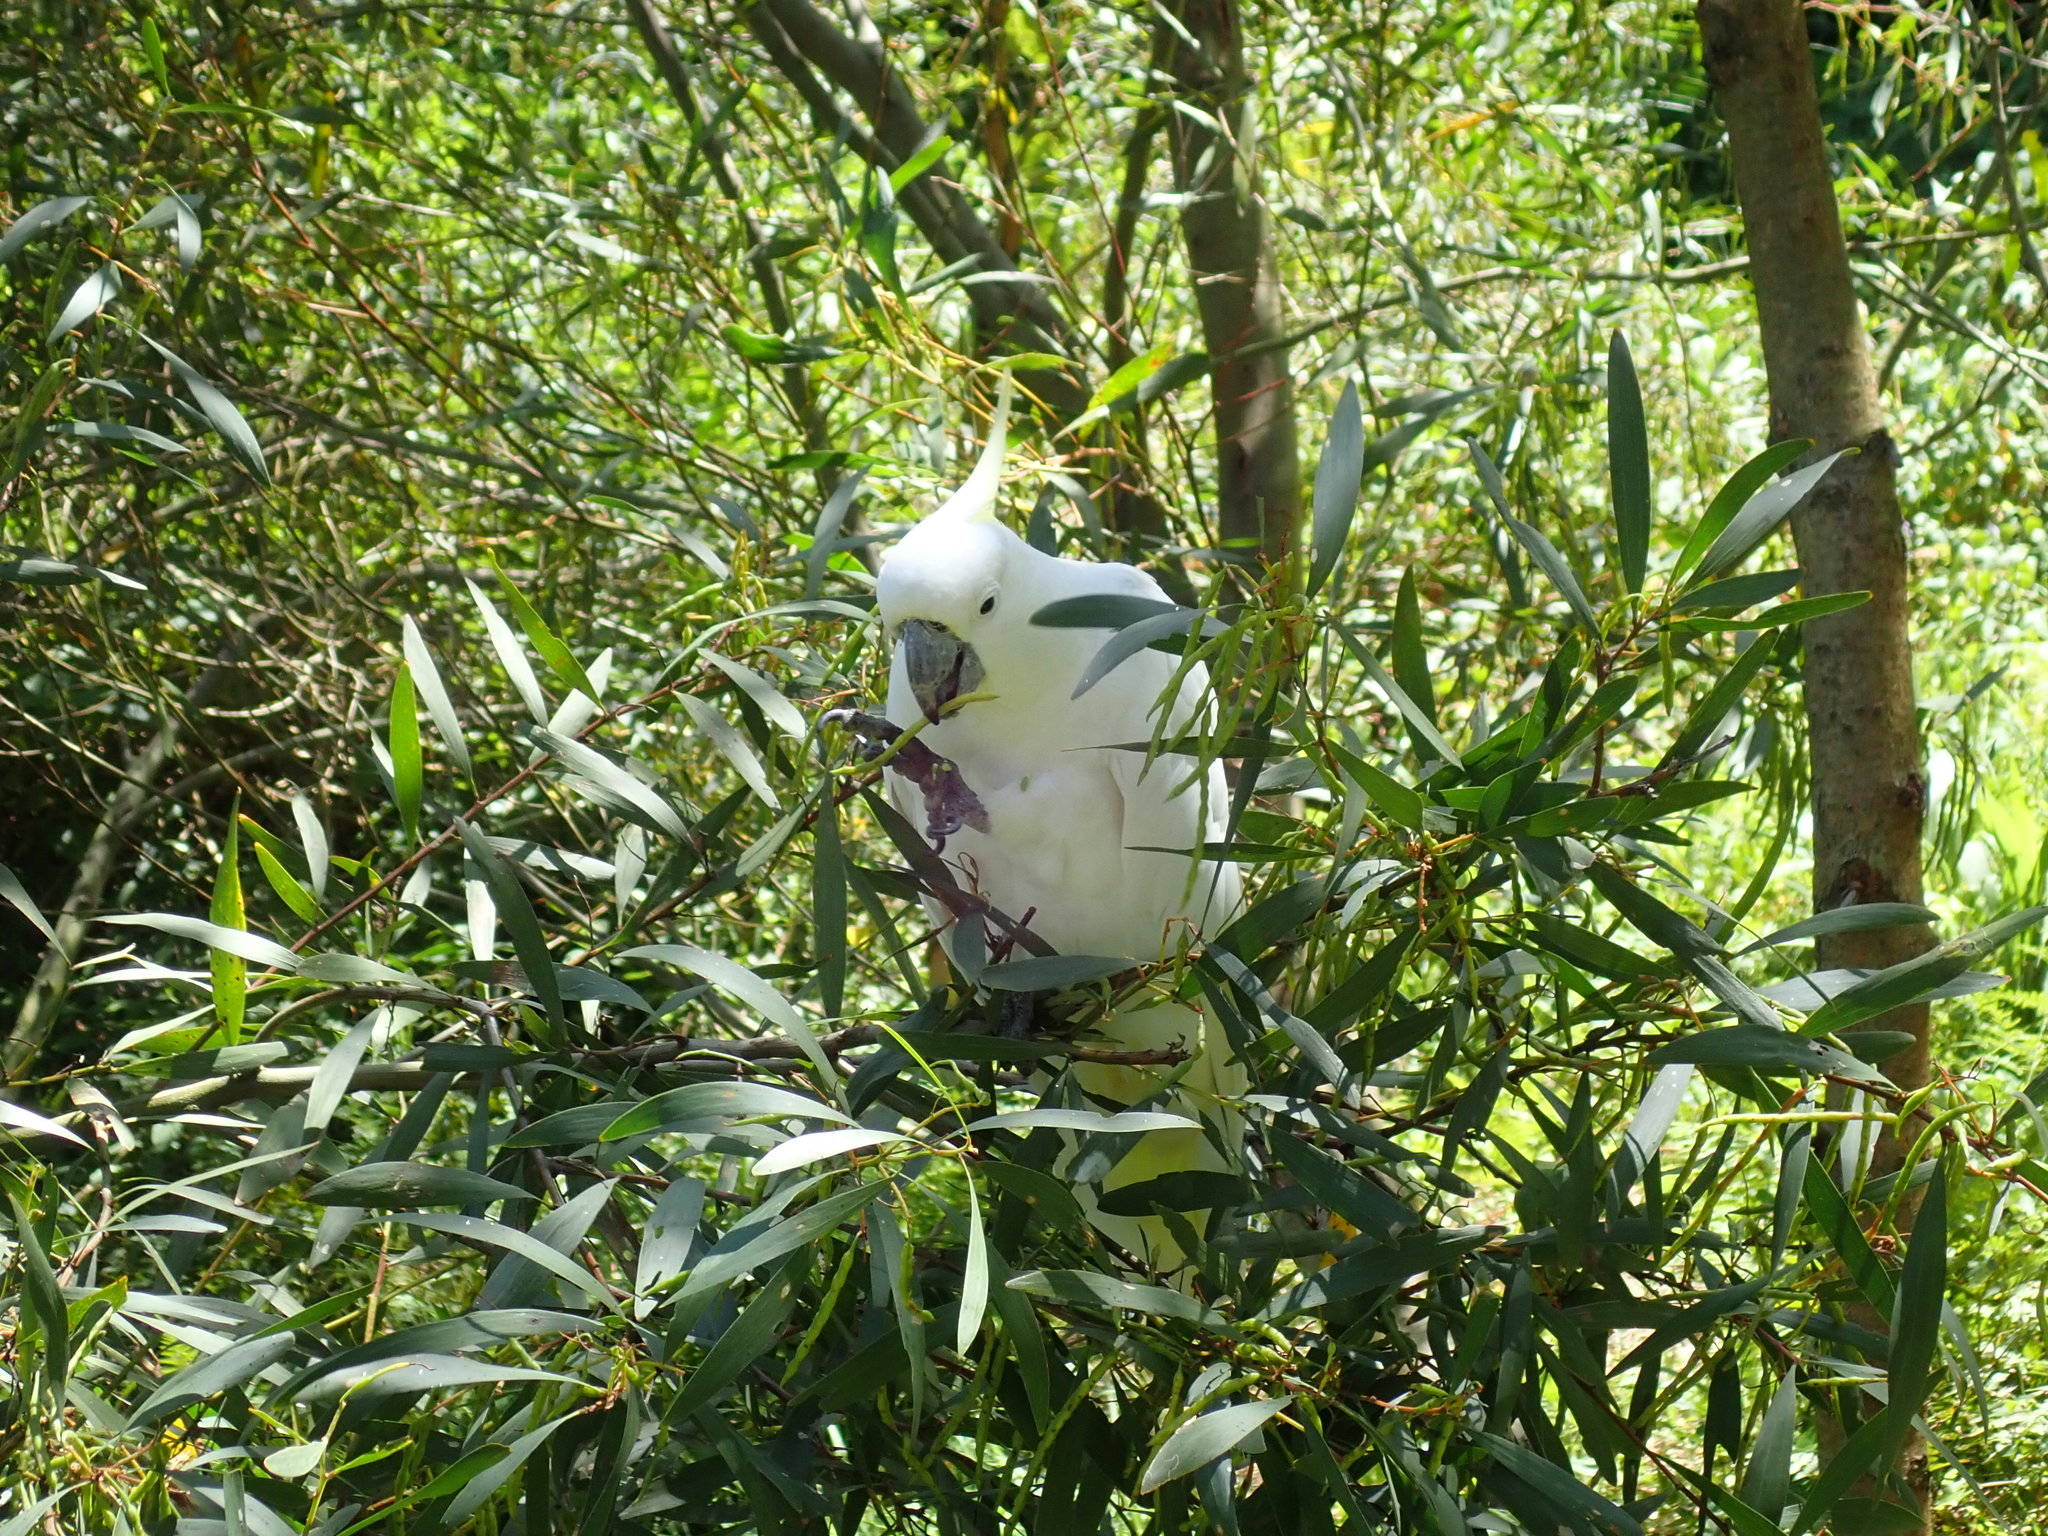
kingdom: Animalia
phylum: Chordata
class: Aves
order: Psittaciformes
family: Psittacidae
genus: Cacatua
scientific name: Cacatua galerita
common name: Sulphur-crested cockatoo
